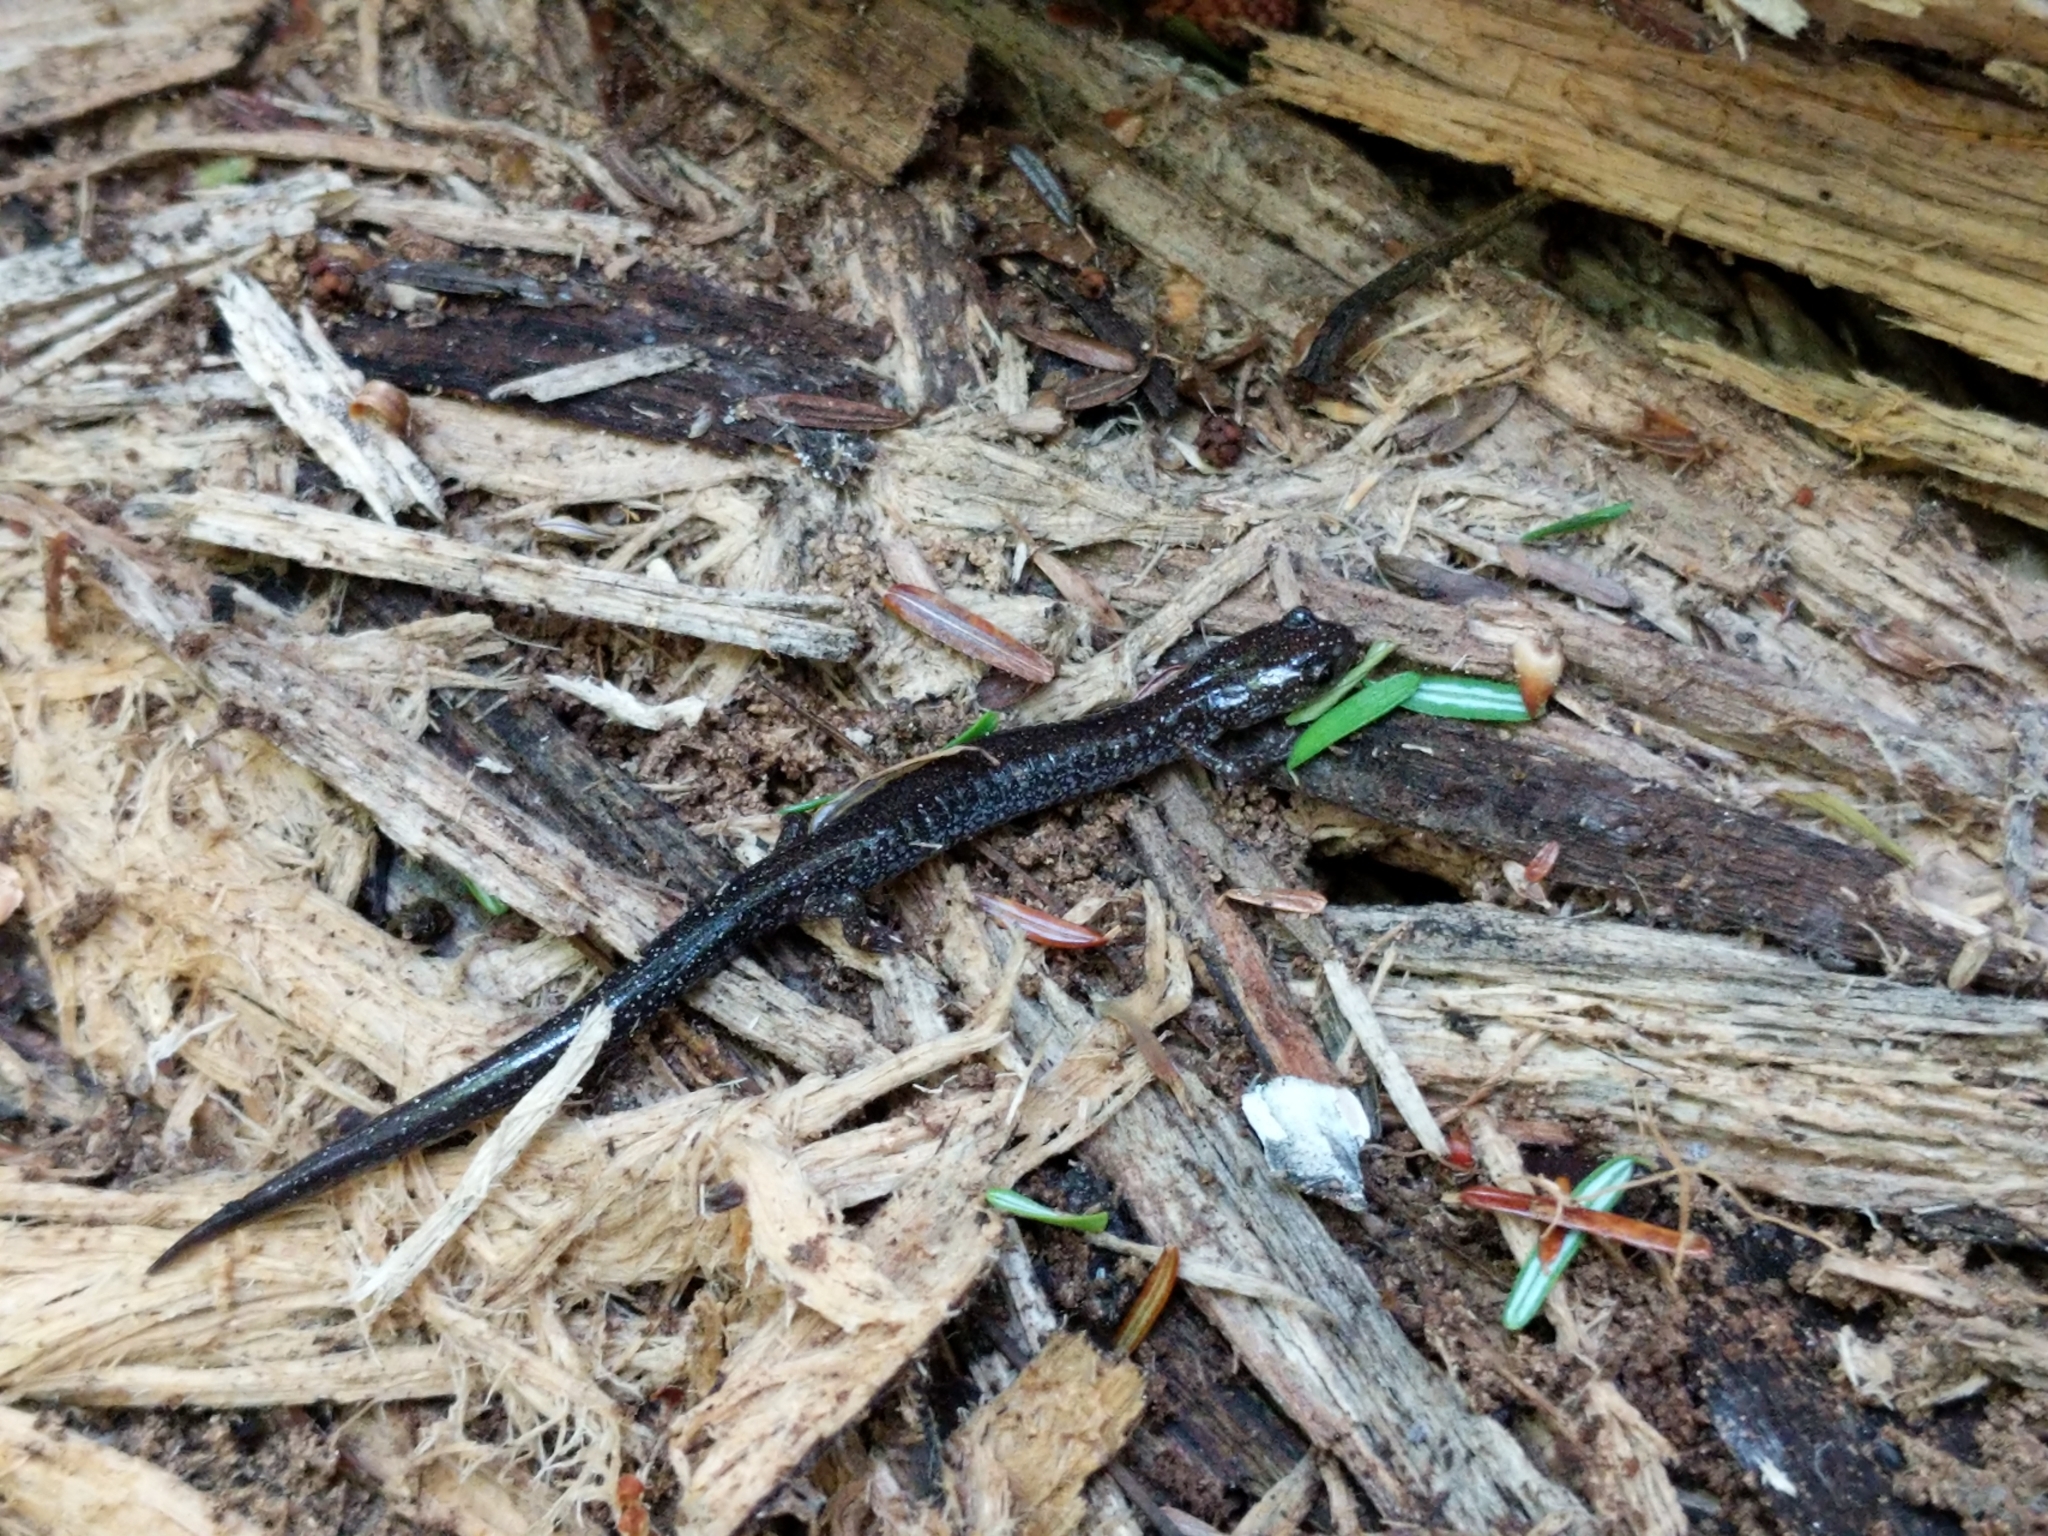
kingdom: Animalia
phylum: Chordata
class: Amphibia
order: Caudata
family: Plethodontidae
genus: Plethodon
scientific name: Plethodon cinereus
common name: Redback salamander
